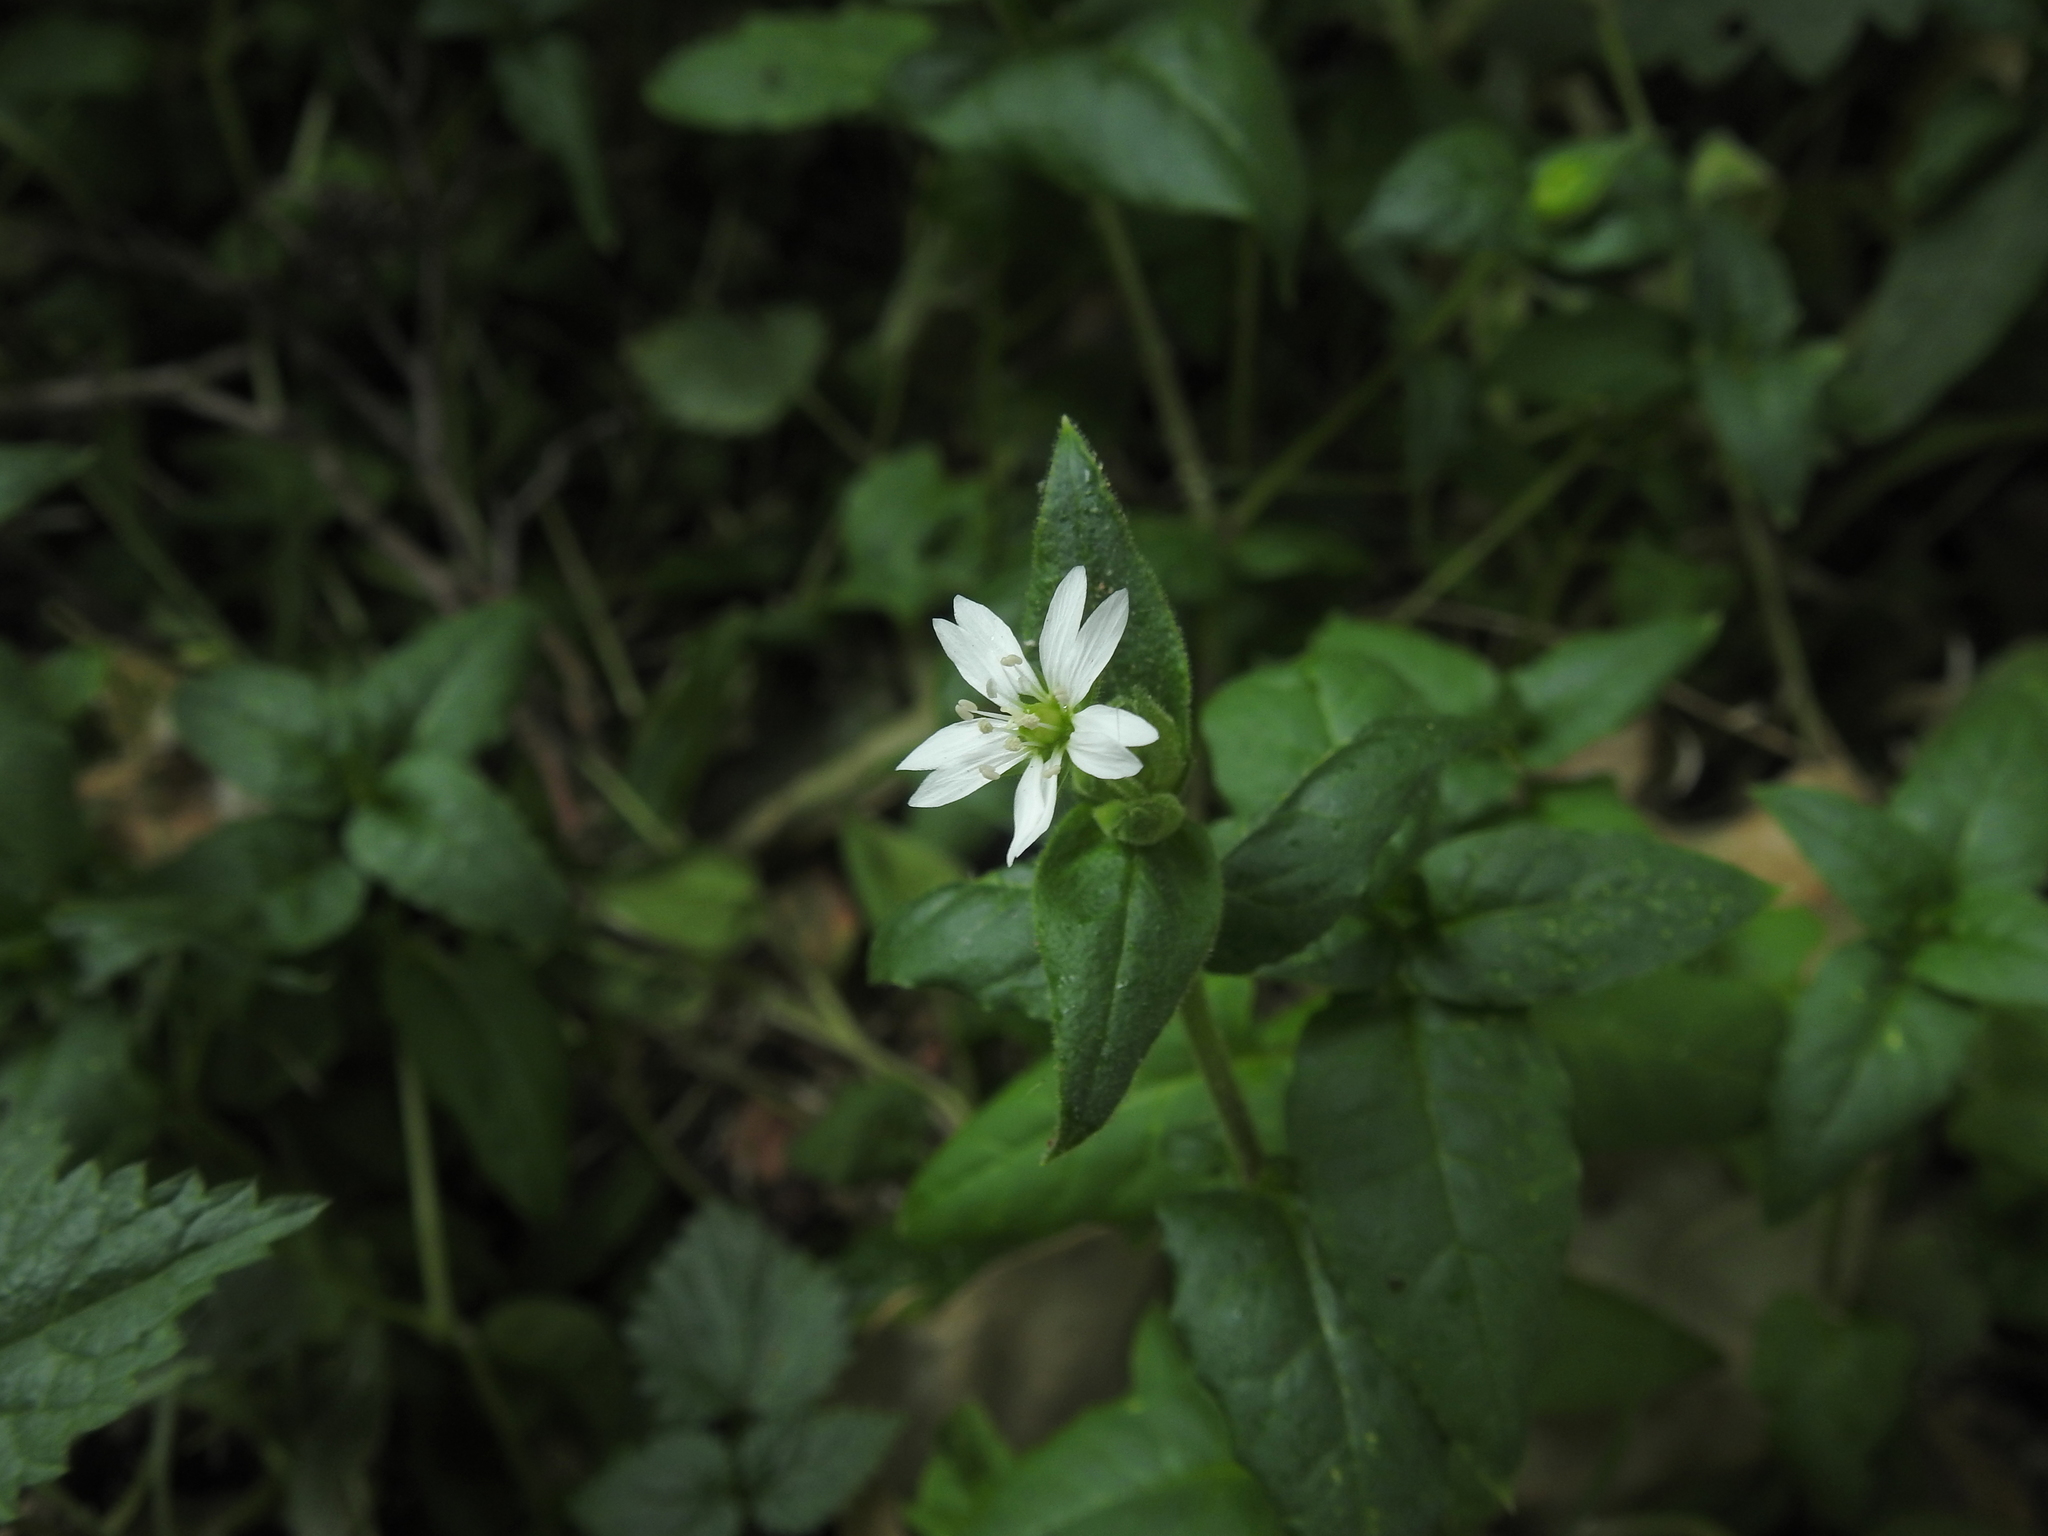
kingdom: Plantae
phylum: Tracheophyta
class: Magnoliopsida
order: Caryophyllales
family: Caryophyllaceae
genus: Stellaria
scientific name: Stellaria aquatica
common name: Water chickweed
